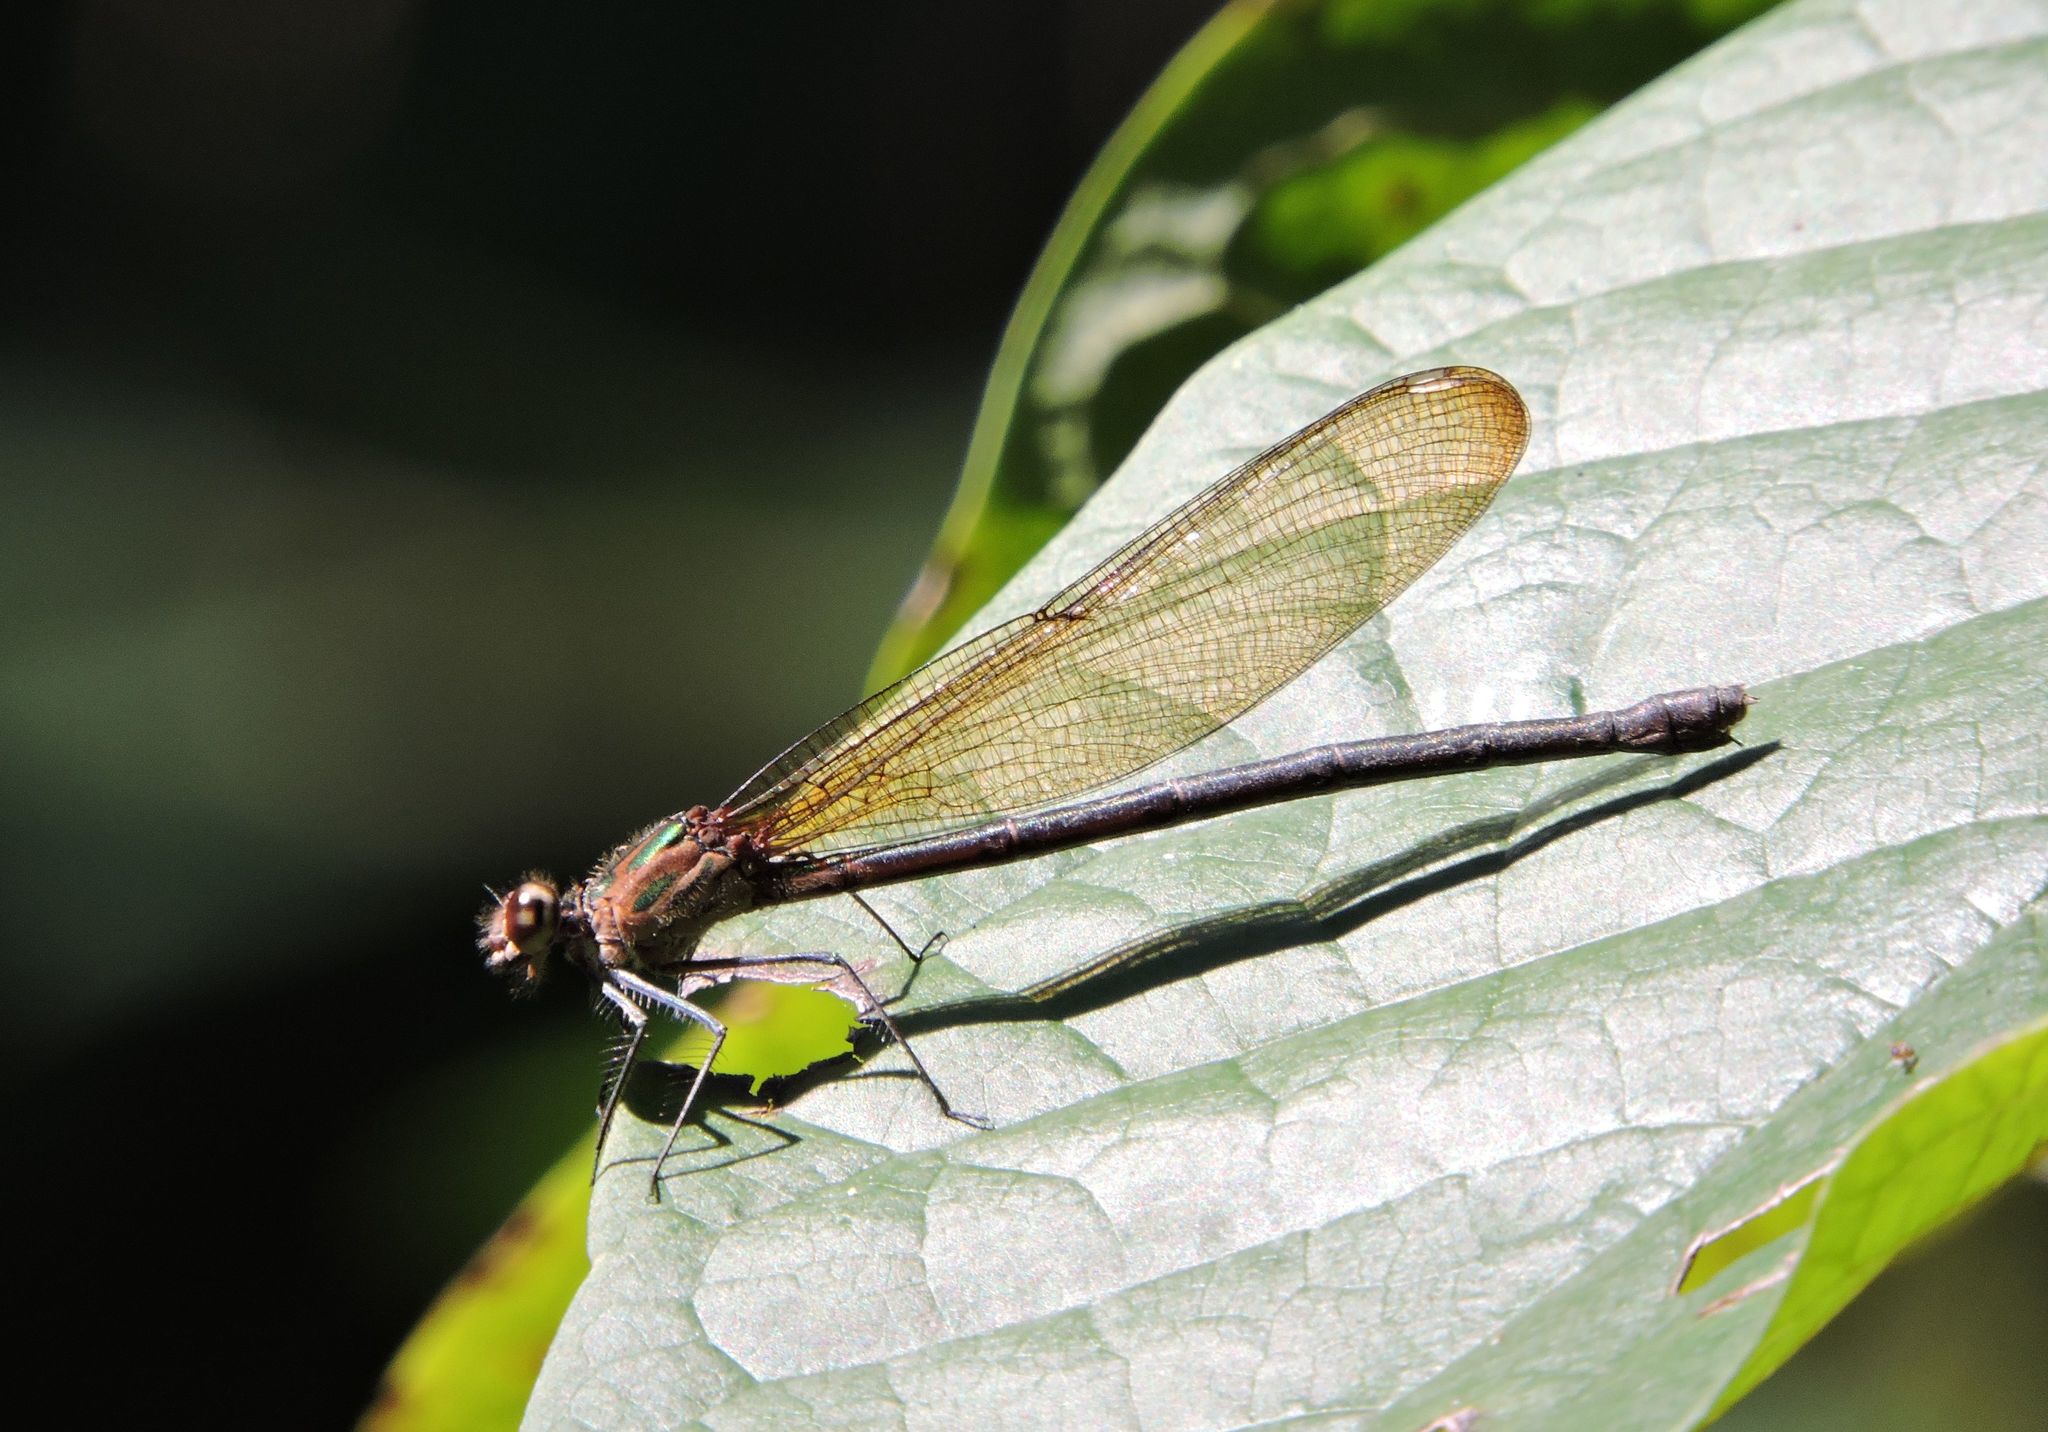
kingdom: Animalia
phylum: Arthropoda
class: Insecta
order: Odonata
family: Calopterygidae
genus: Hetaerina
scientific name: Hetaerina titia
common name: Smoky rubyspot
